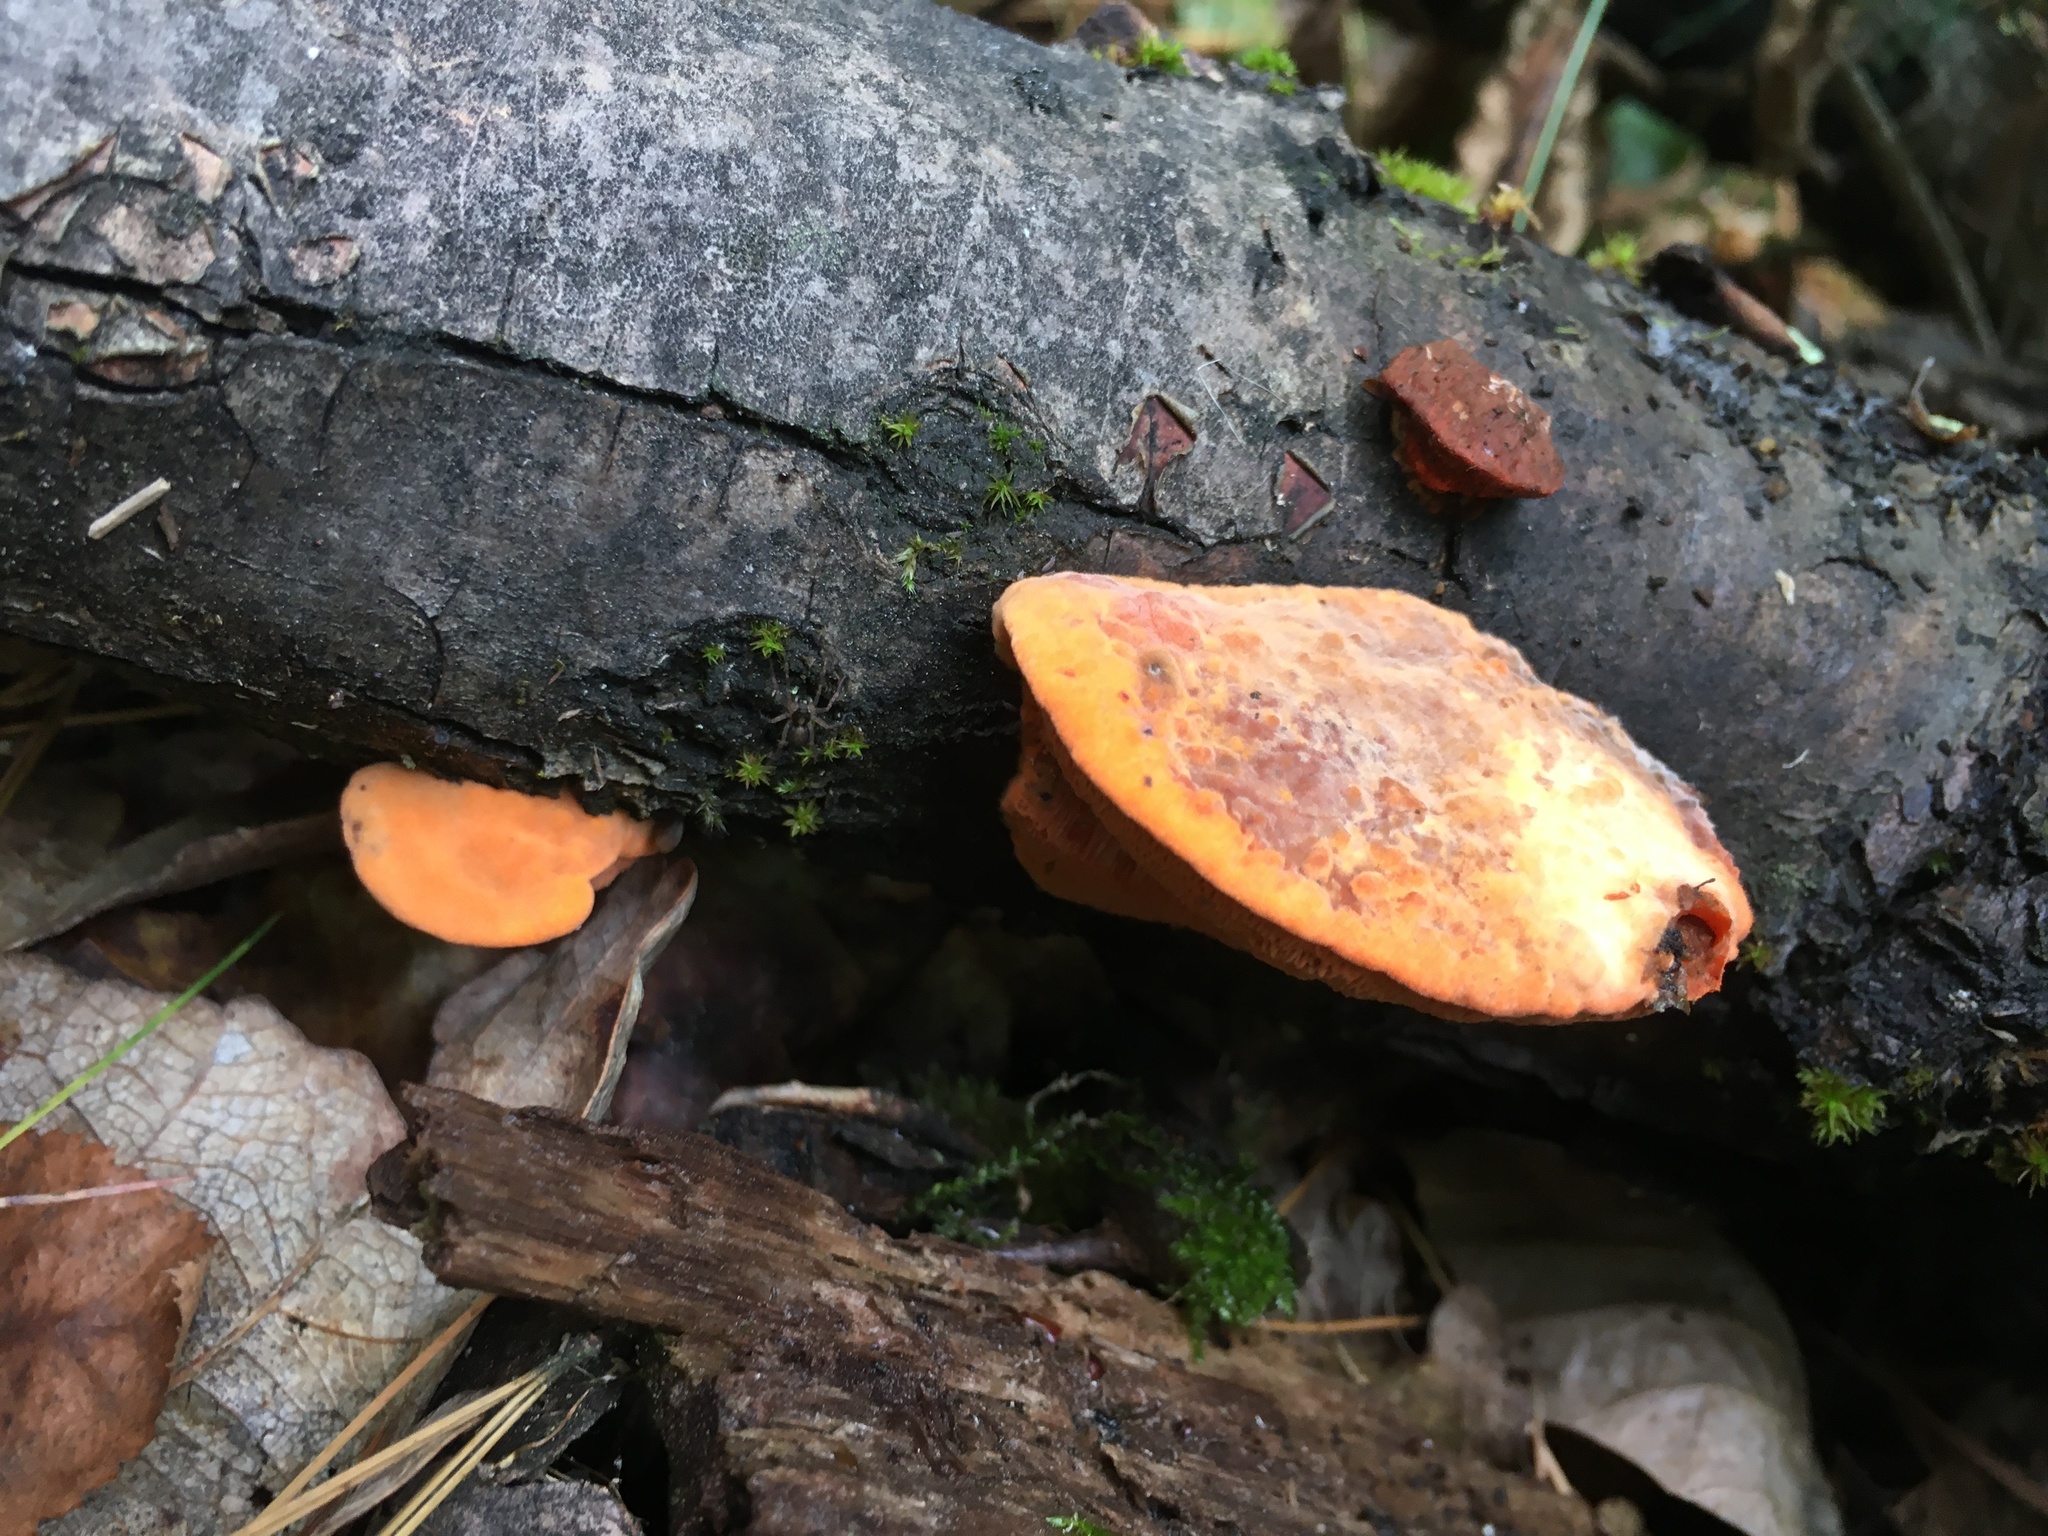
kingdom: Fungi
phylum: Basidiomycota
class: Agaricomycetes
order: Polyporales
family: Polyporaceae
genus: Trametes
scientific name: Trametes cinnabarina
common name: Northern cinnabar polypore
